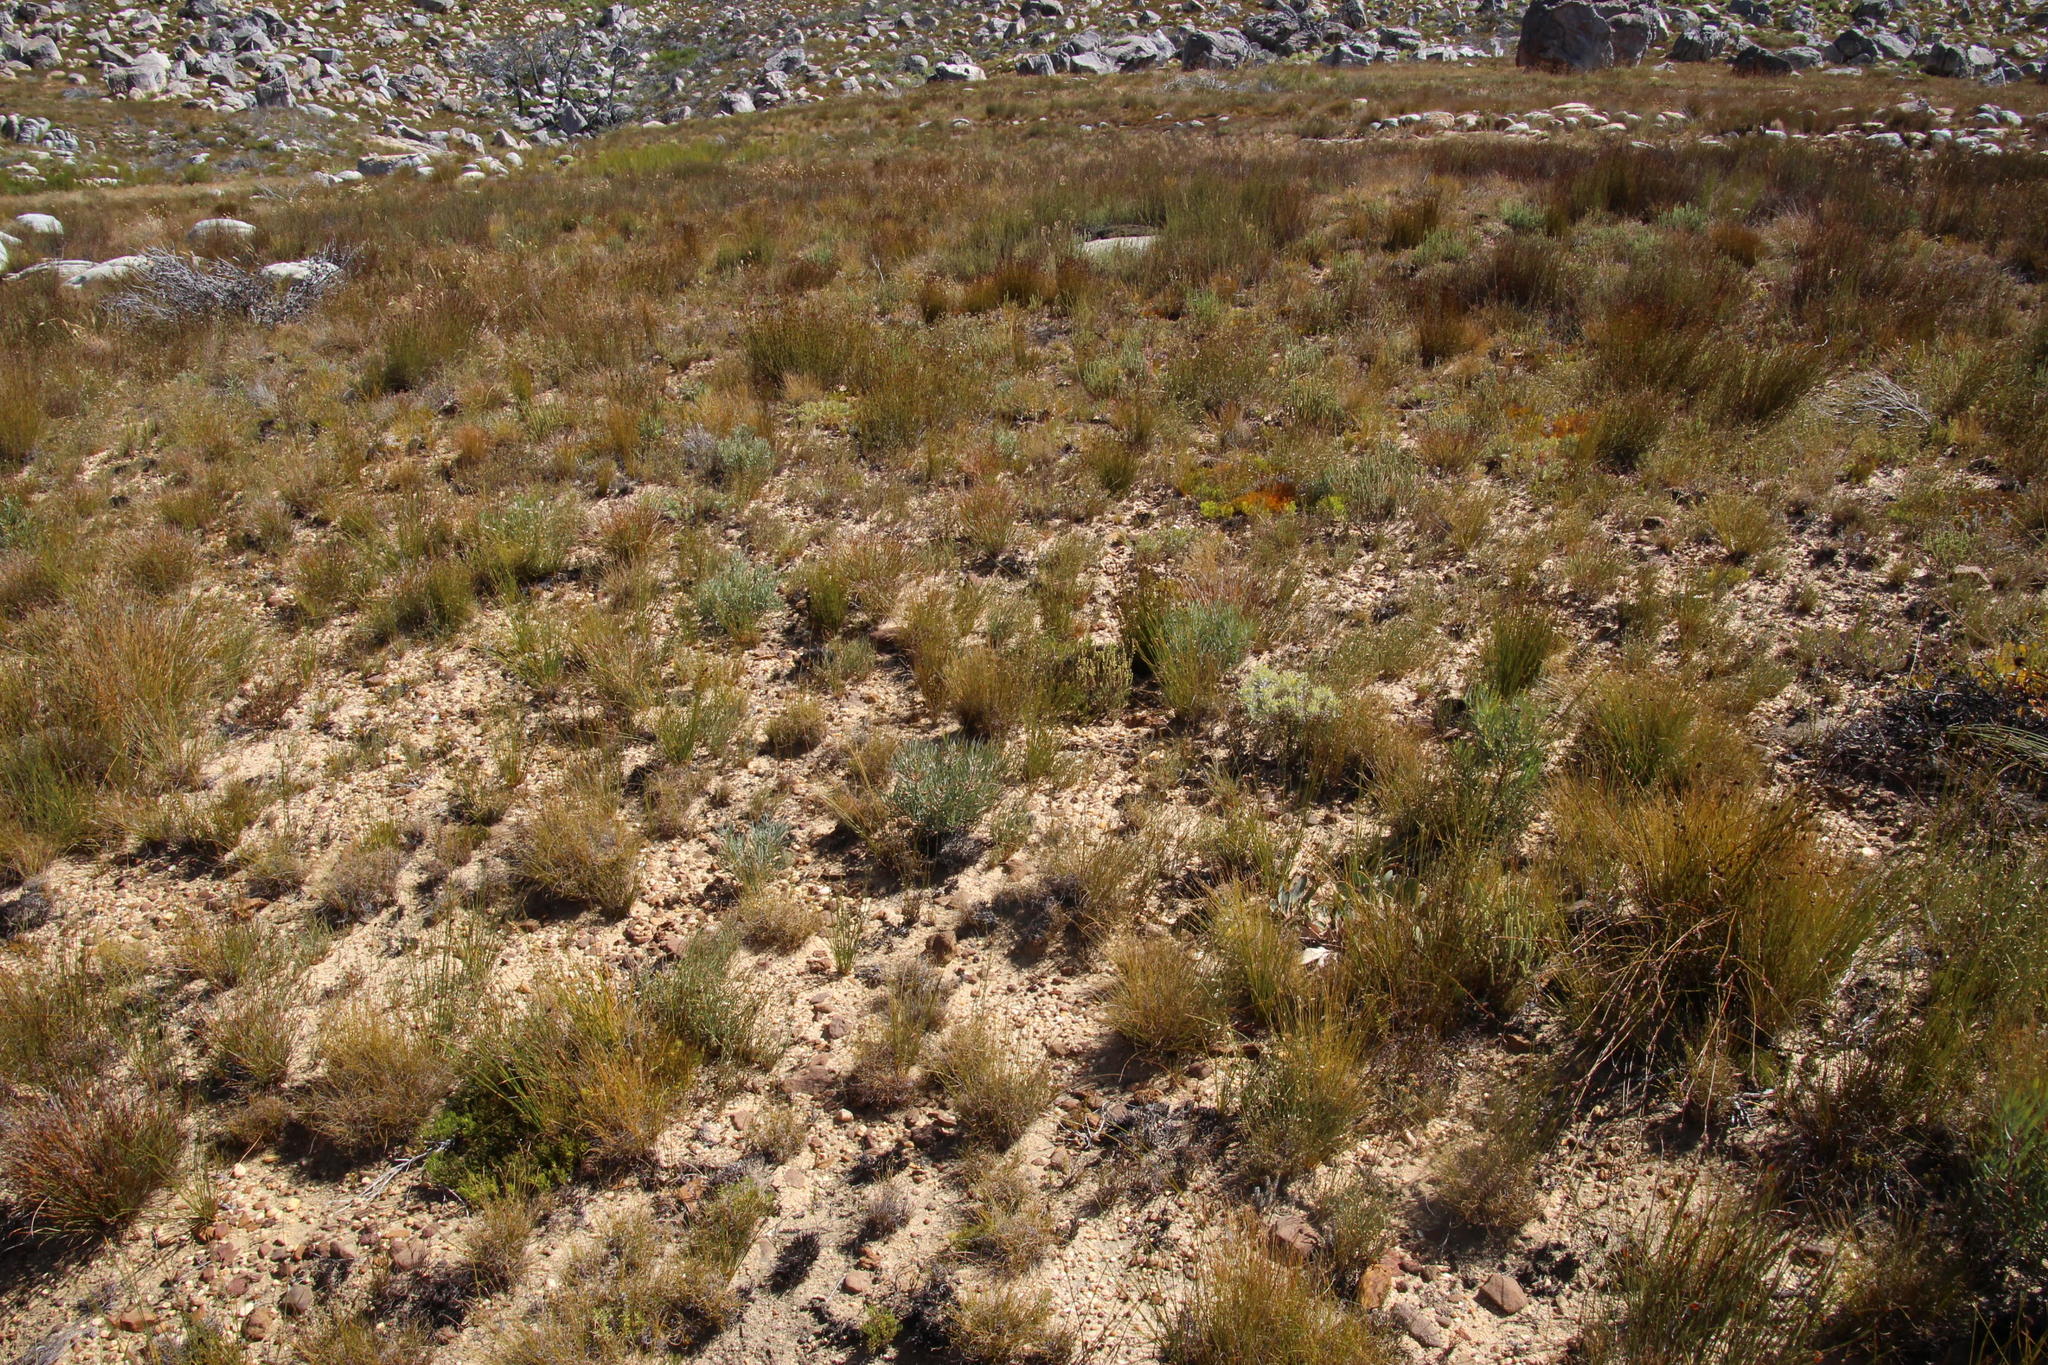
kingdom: Plantae
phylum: Tracheophyta
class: Magnoliopsida
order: Proteales
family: Proteaceae
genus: Protea
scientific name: Protea acuminata
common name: Black-rim sugarbush
